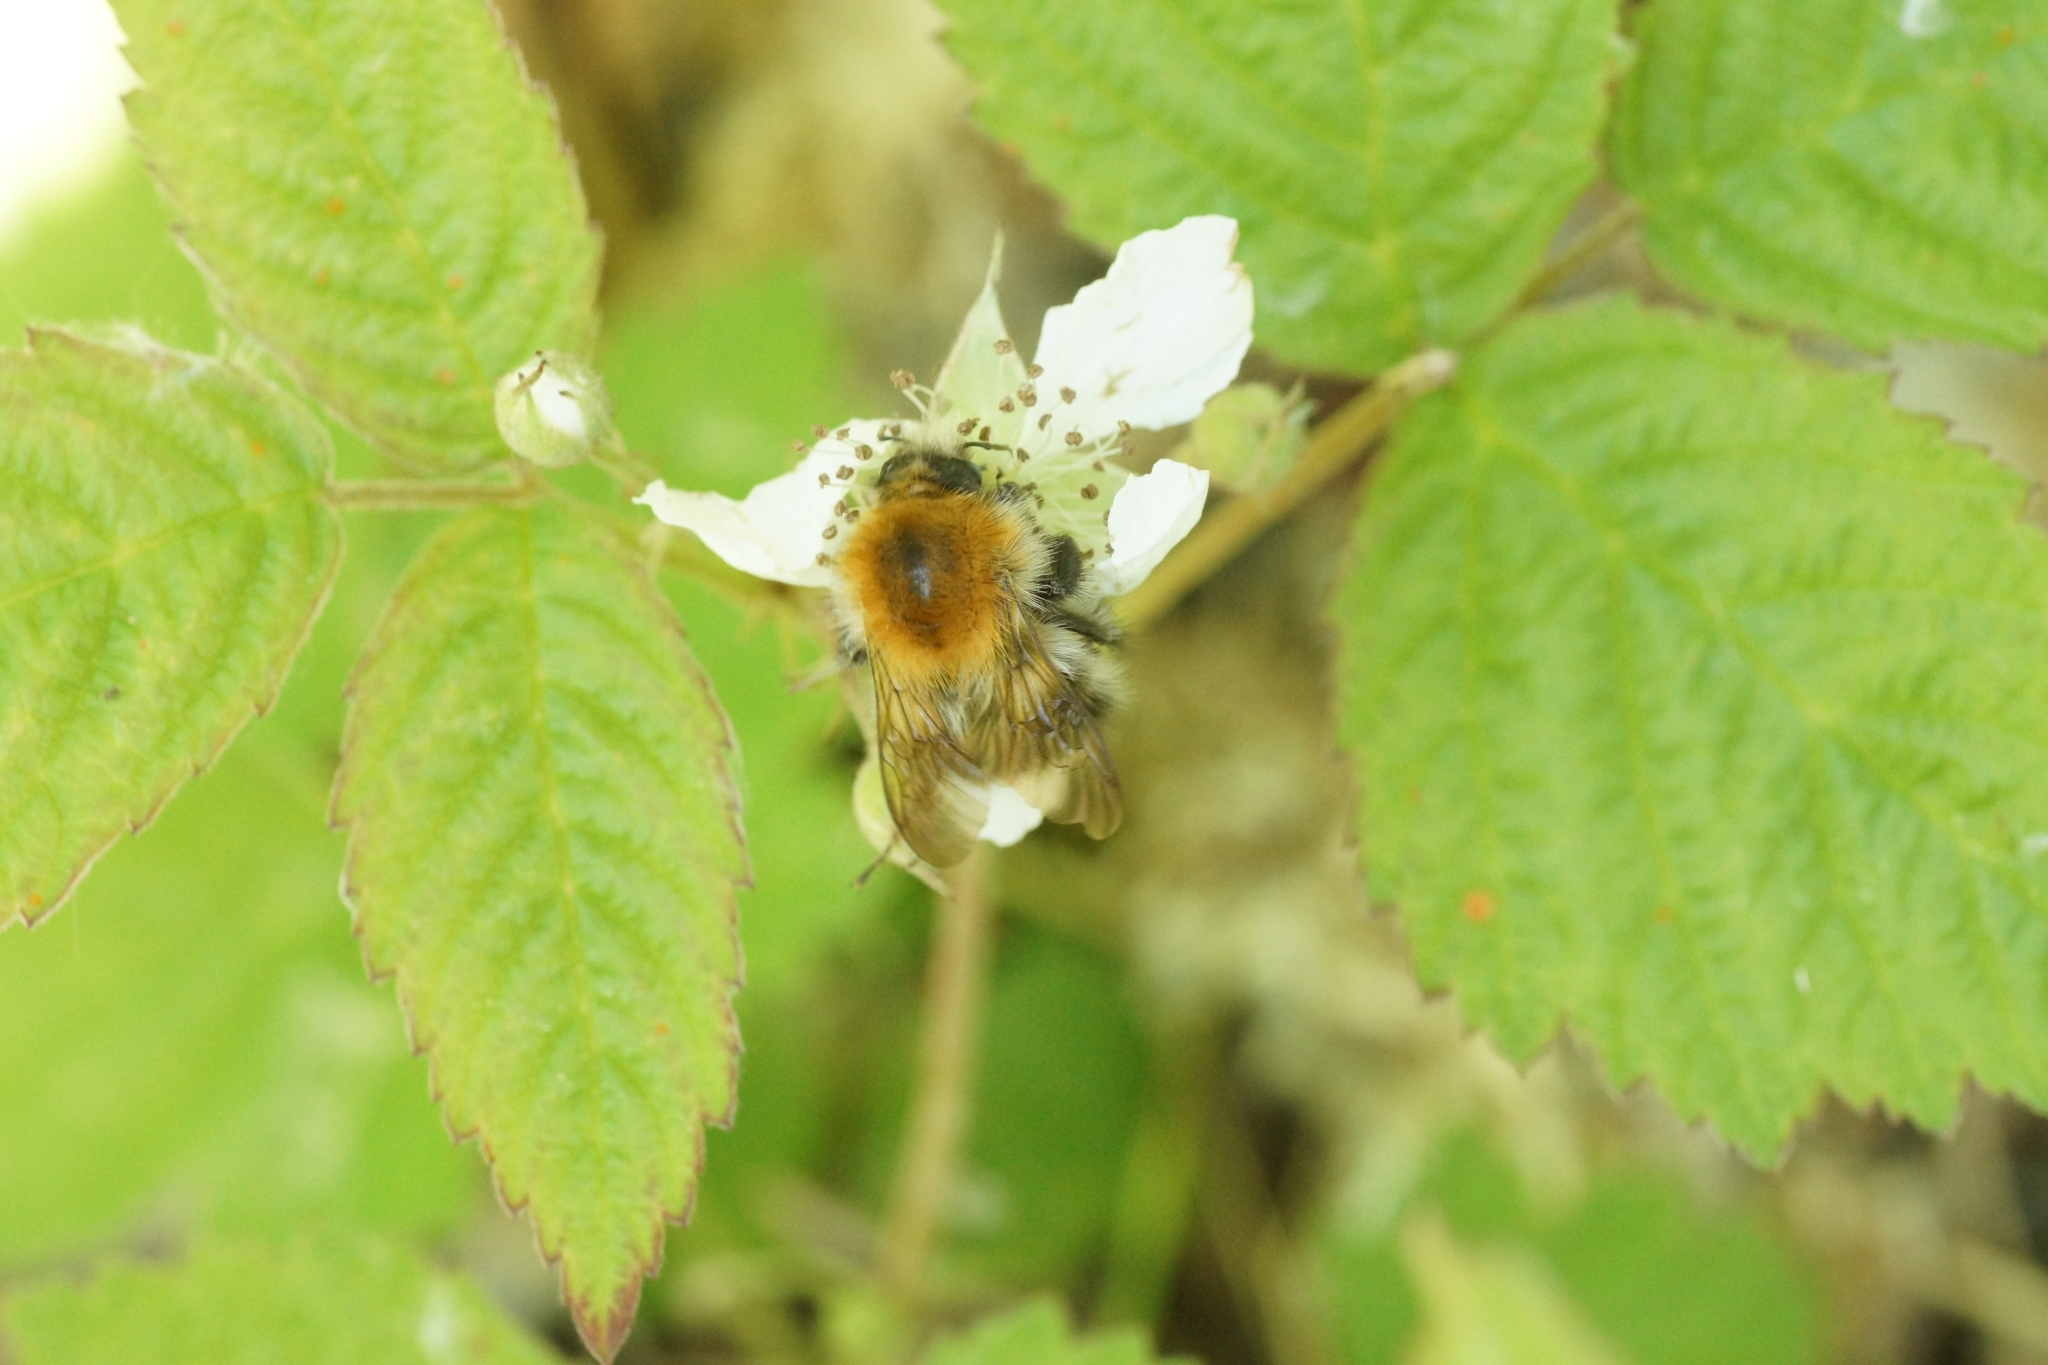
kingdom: Animalia
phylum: Arthropoda
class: Insecta
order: Hymenoptera
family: Apidae
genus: Bombus
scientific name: Bombus pascuorum
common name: Common carder bee
